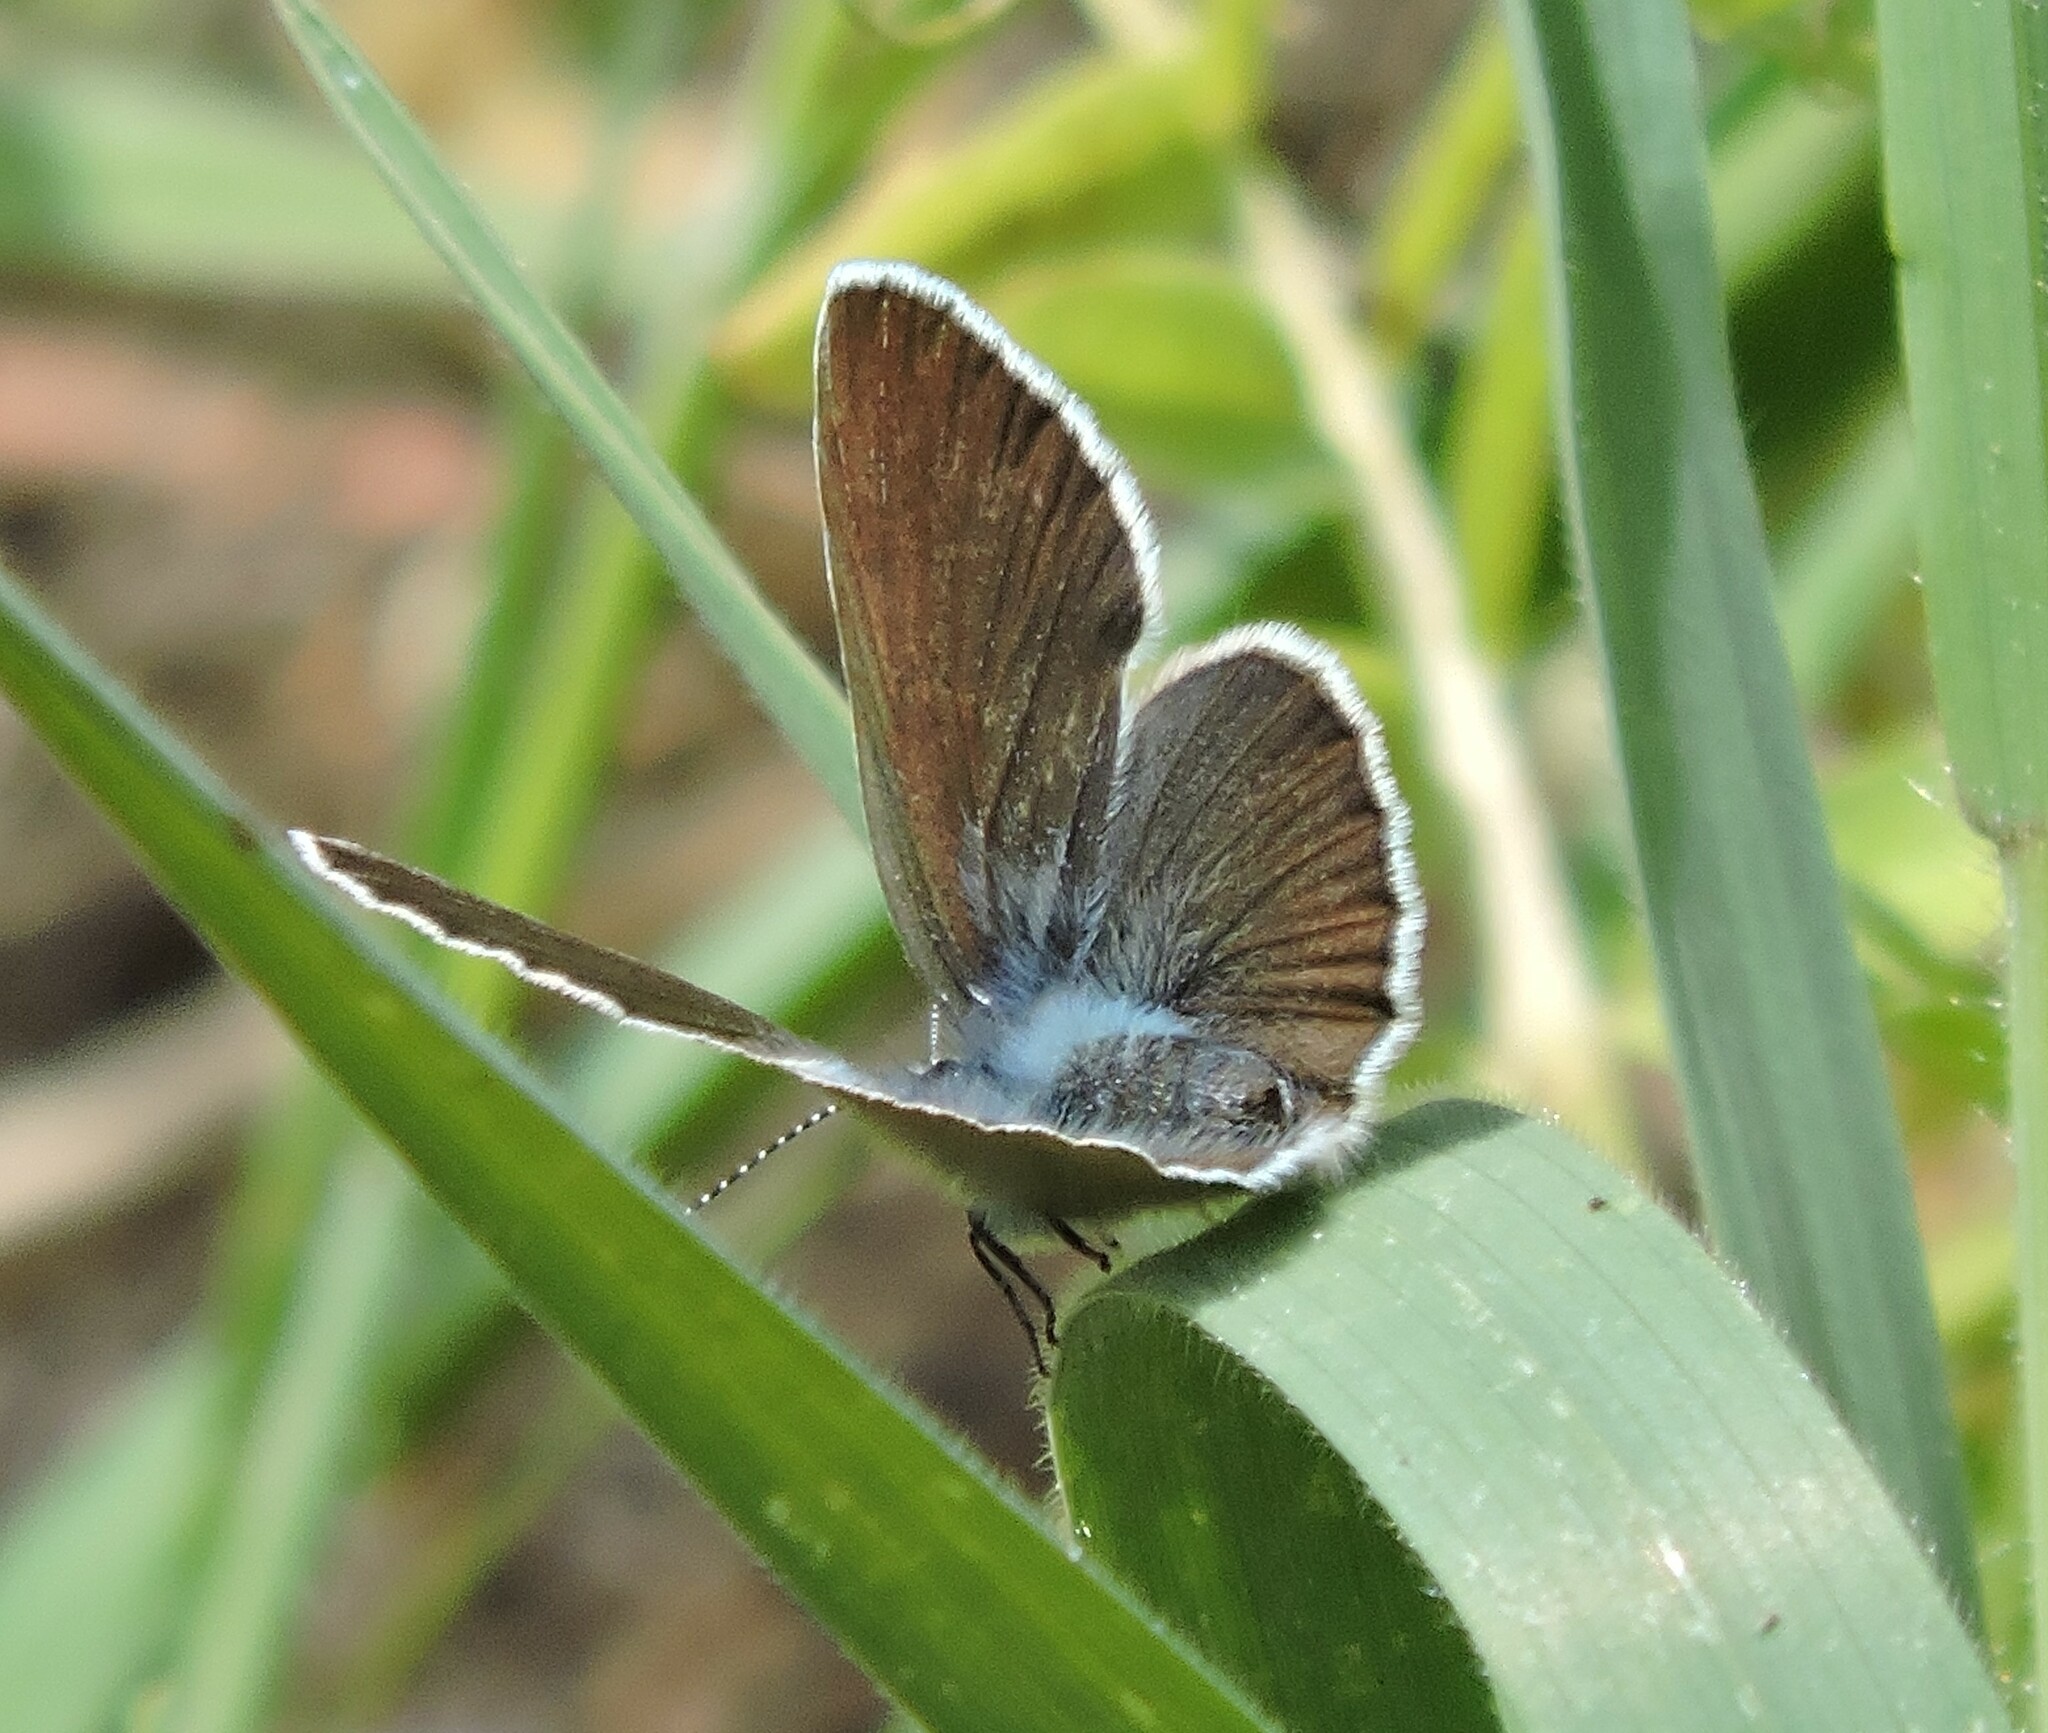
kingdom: Animalia
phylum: Arthropoda
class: Insecta
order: Lepidoptera
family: Lycaenidae
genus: Glaucopsyche
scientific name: Glaucopsyche lygdamus
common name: Silvery blue
